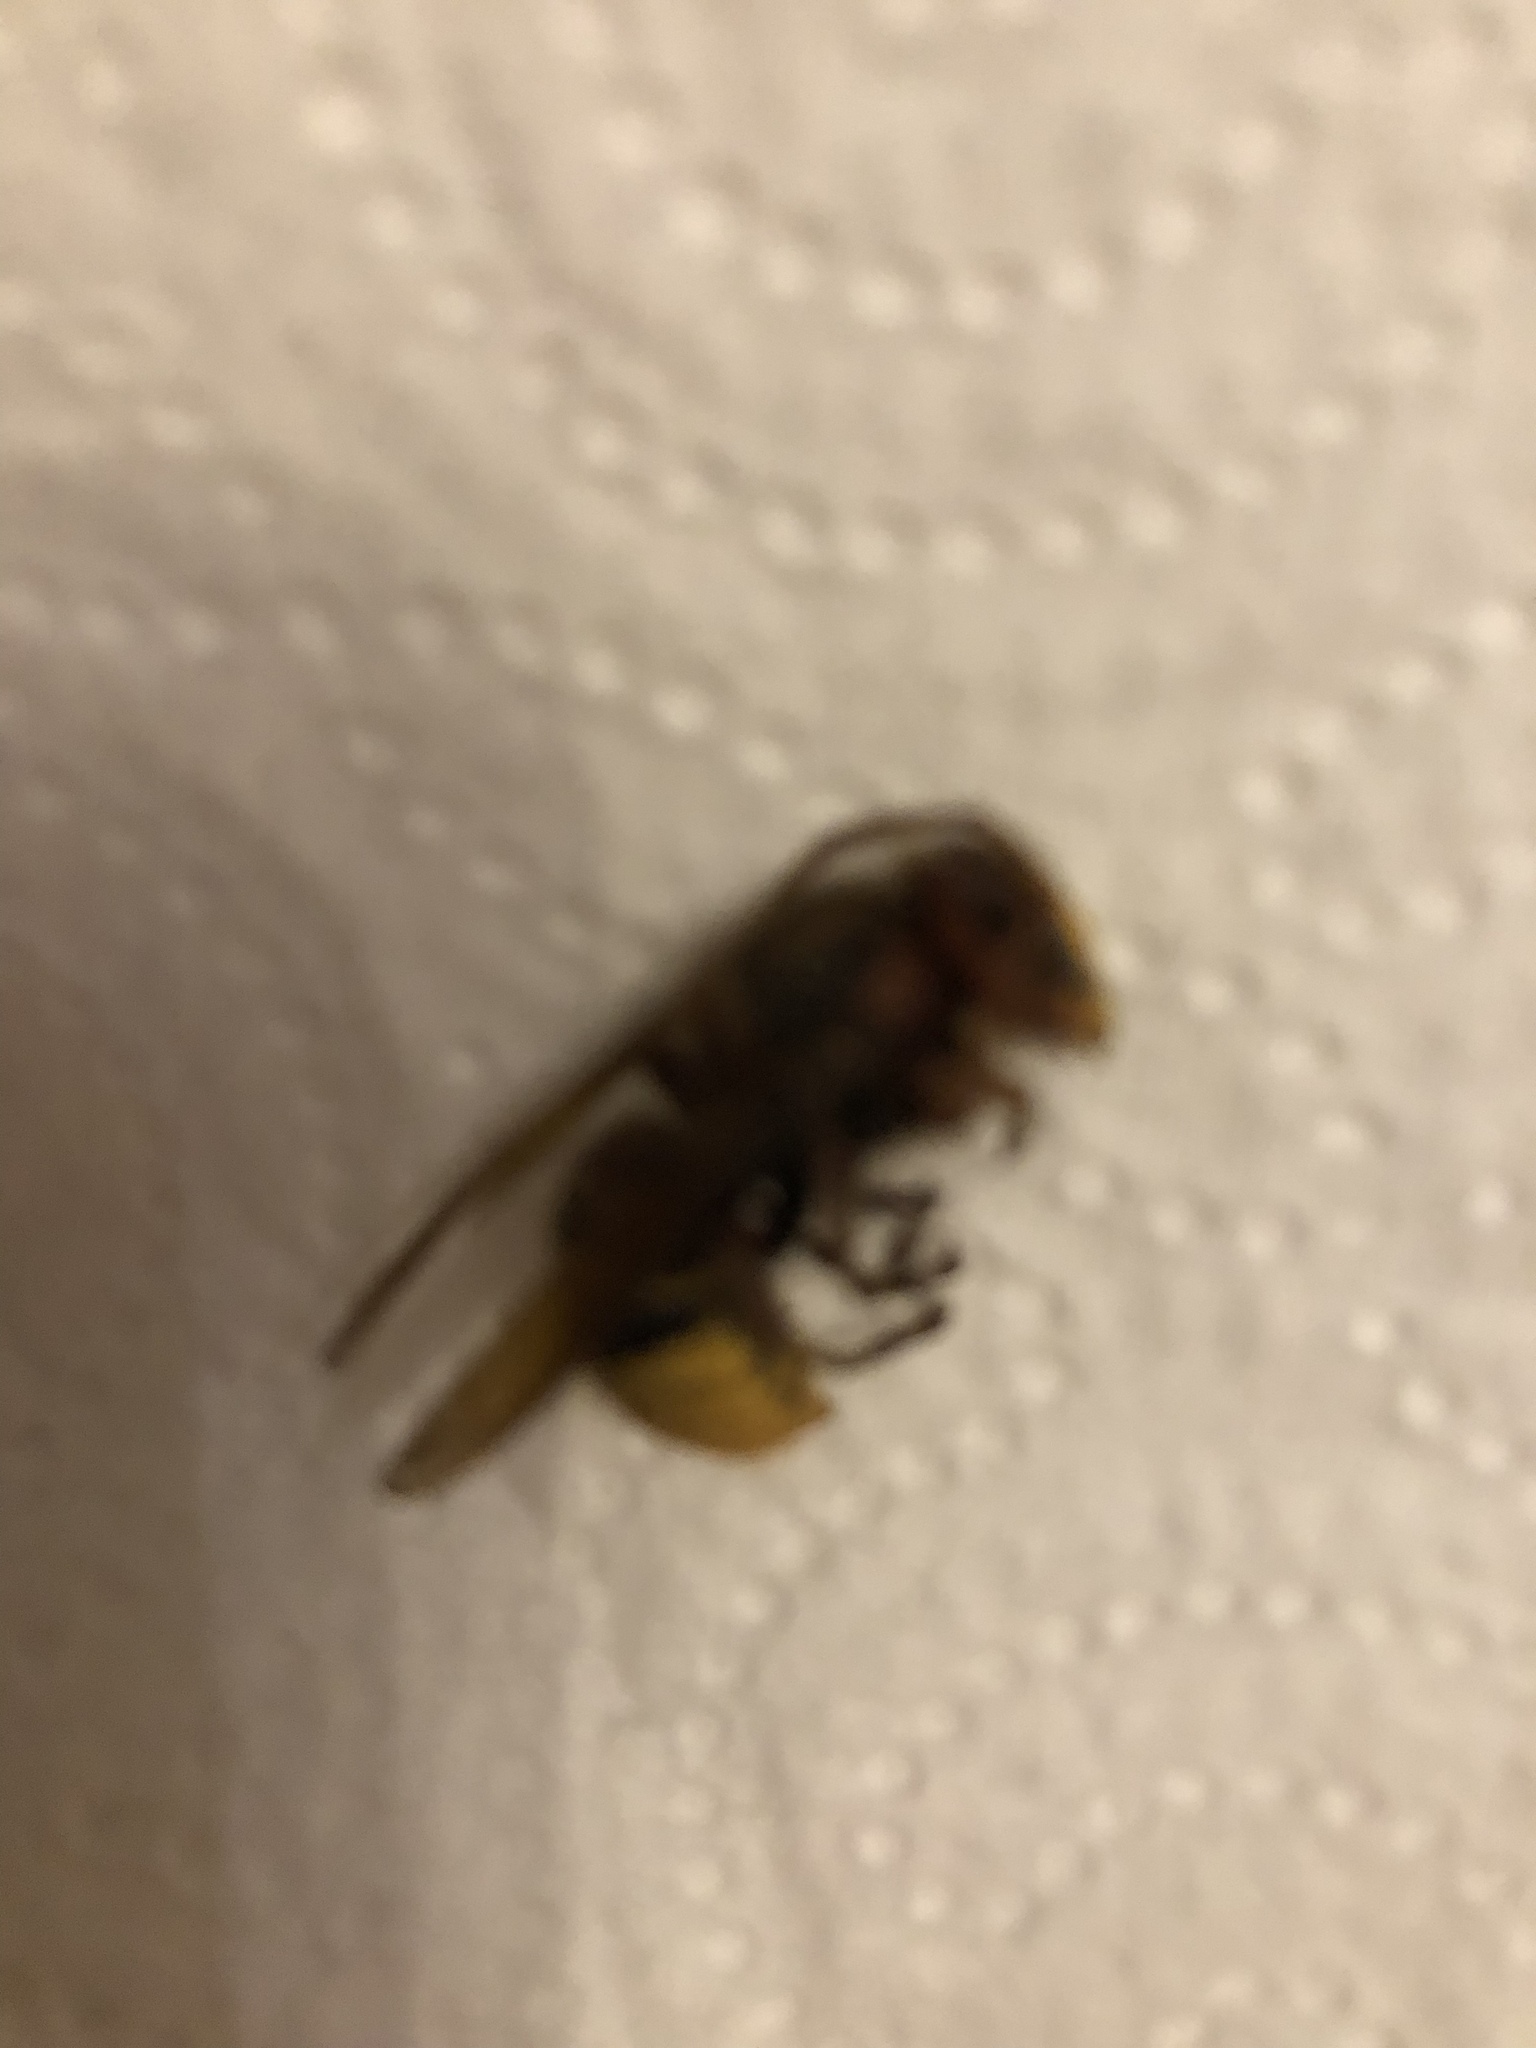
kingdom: Animalia
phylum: Arthropoda
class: Insecta
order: Hymenoptera
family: Vespidae
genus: Vespa
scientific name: Vespa crabro
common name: Hornet
